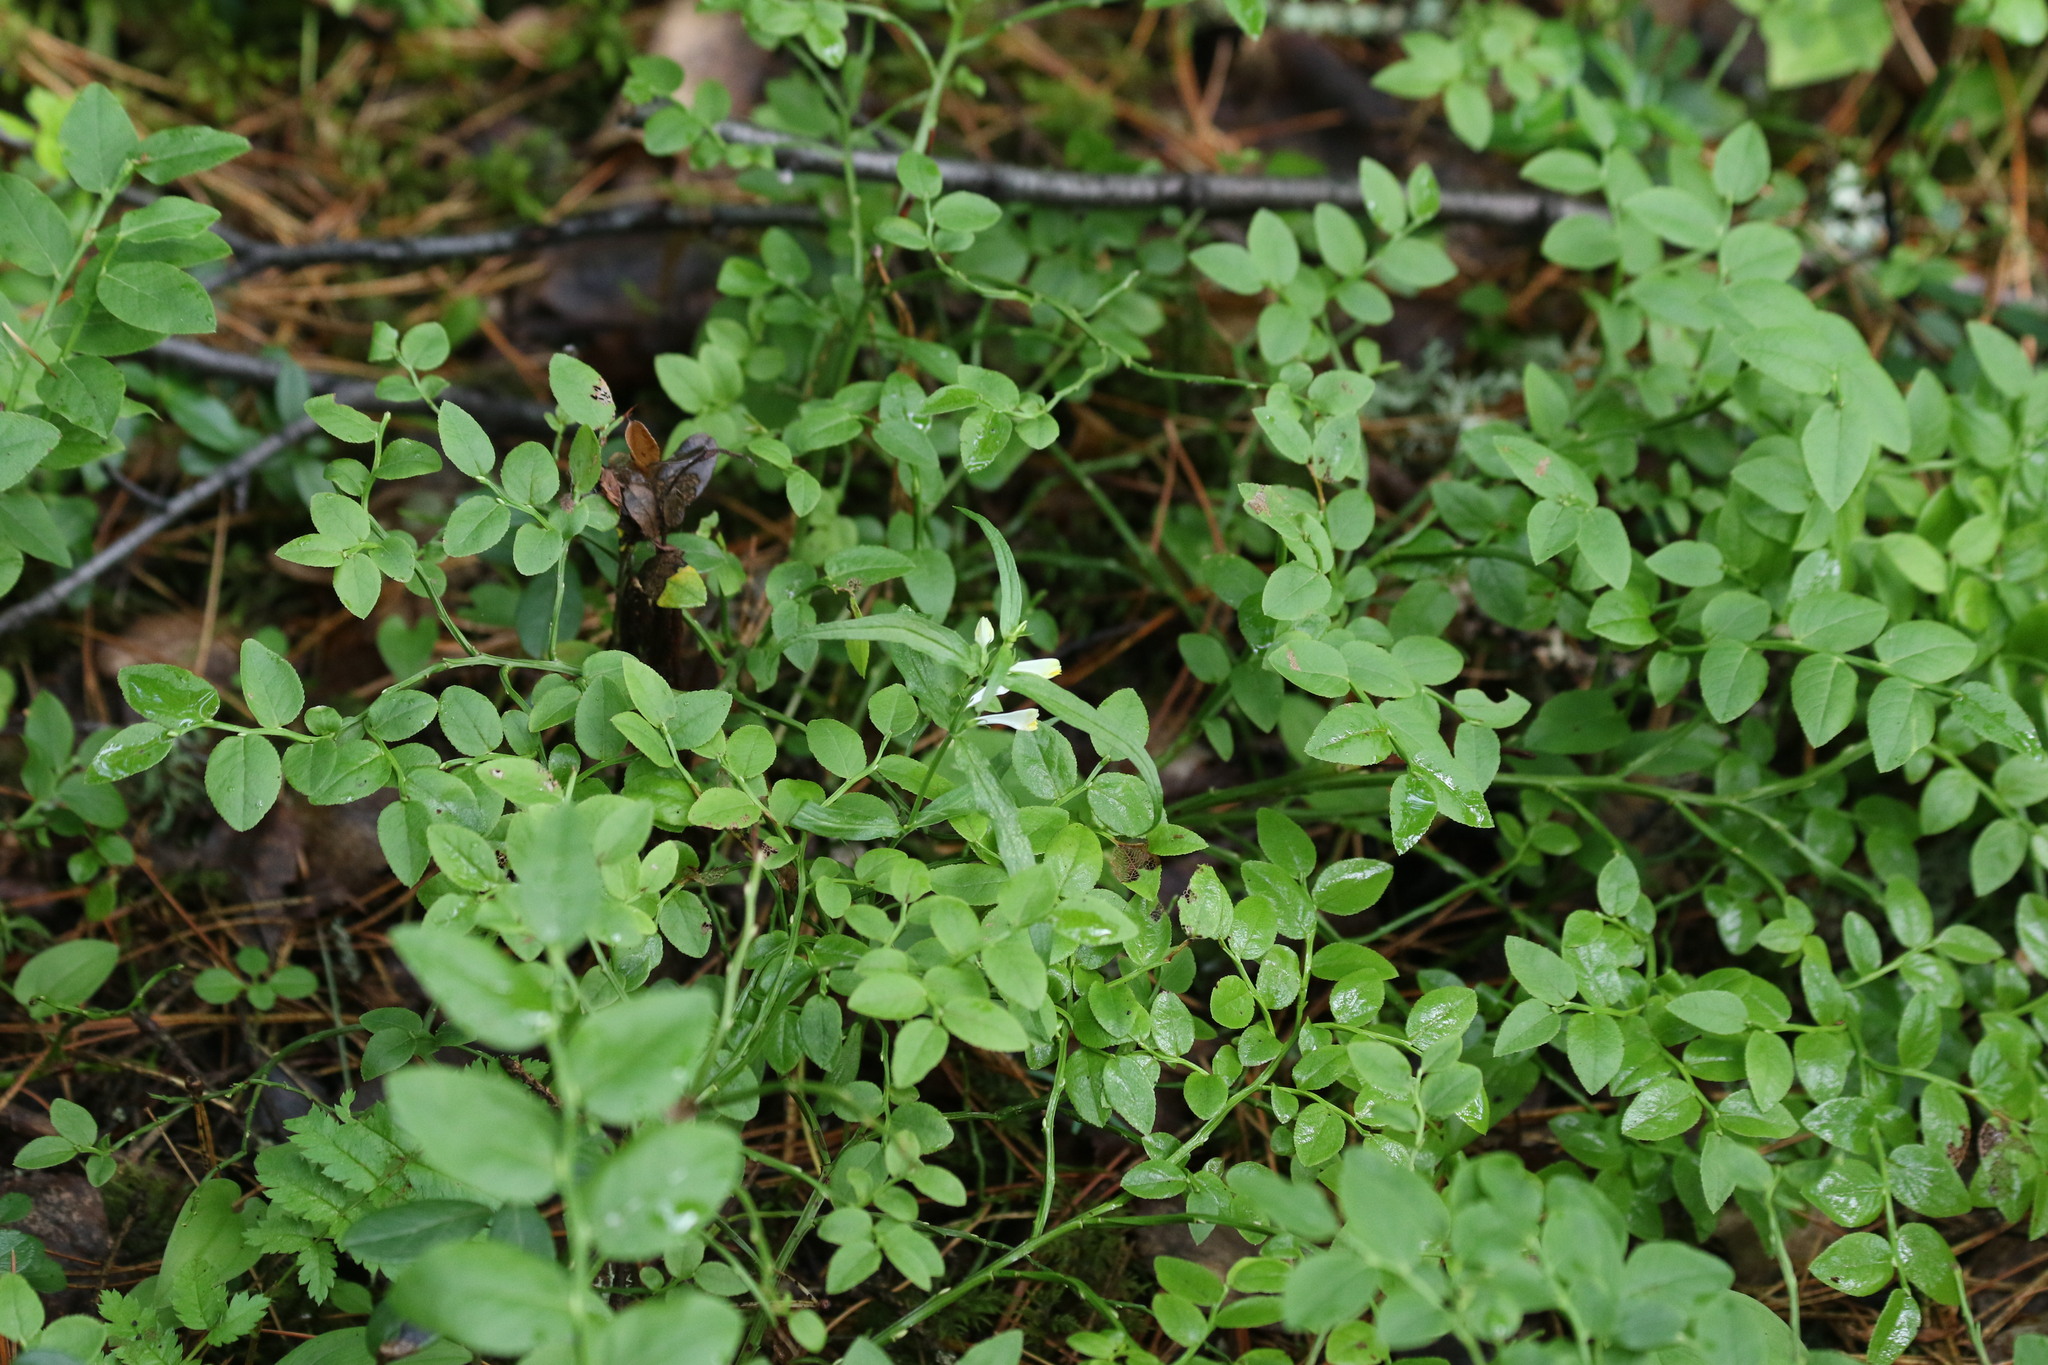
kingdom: Plantae
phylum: Tracheophyta
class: Magnoliopsida
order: Lamiales
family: Orobanchaceae
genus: Melampyrum
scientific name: Melampyrum pratense
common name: Common cow-wheat
